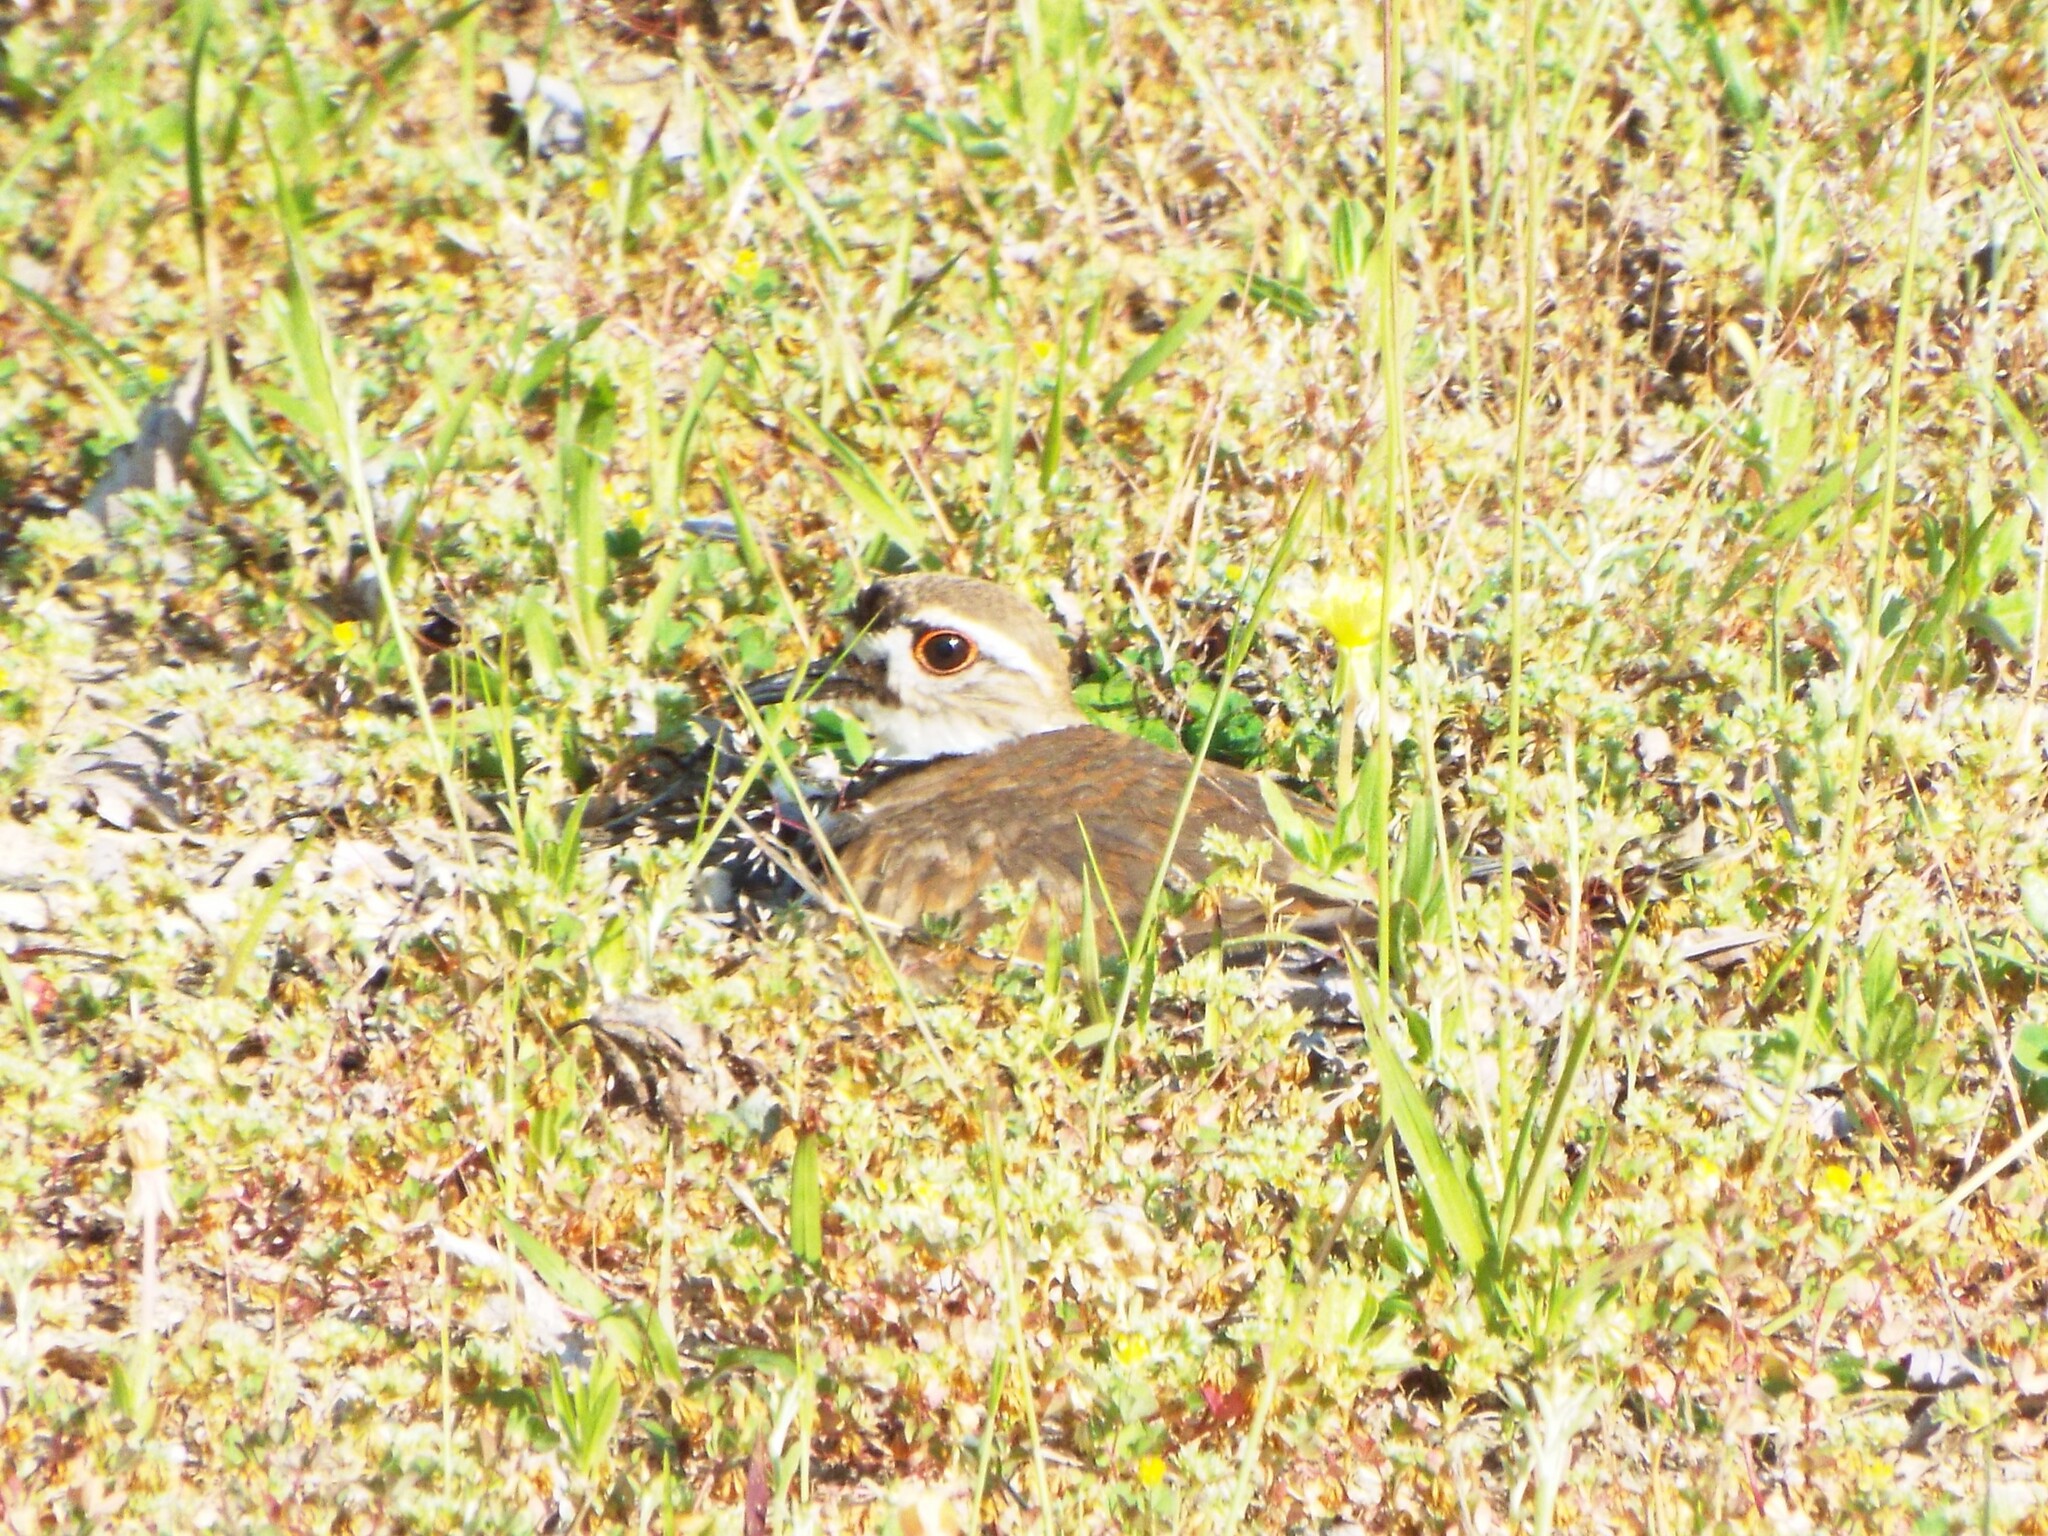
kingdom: Animalia
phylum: Chordata
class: Aves
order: Charadriiformes
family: Charadriidae
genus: Charadrius
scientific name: Charadrius vociferus
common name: Killdeer
